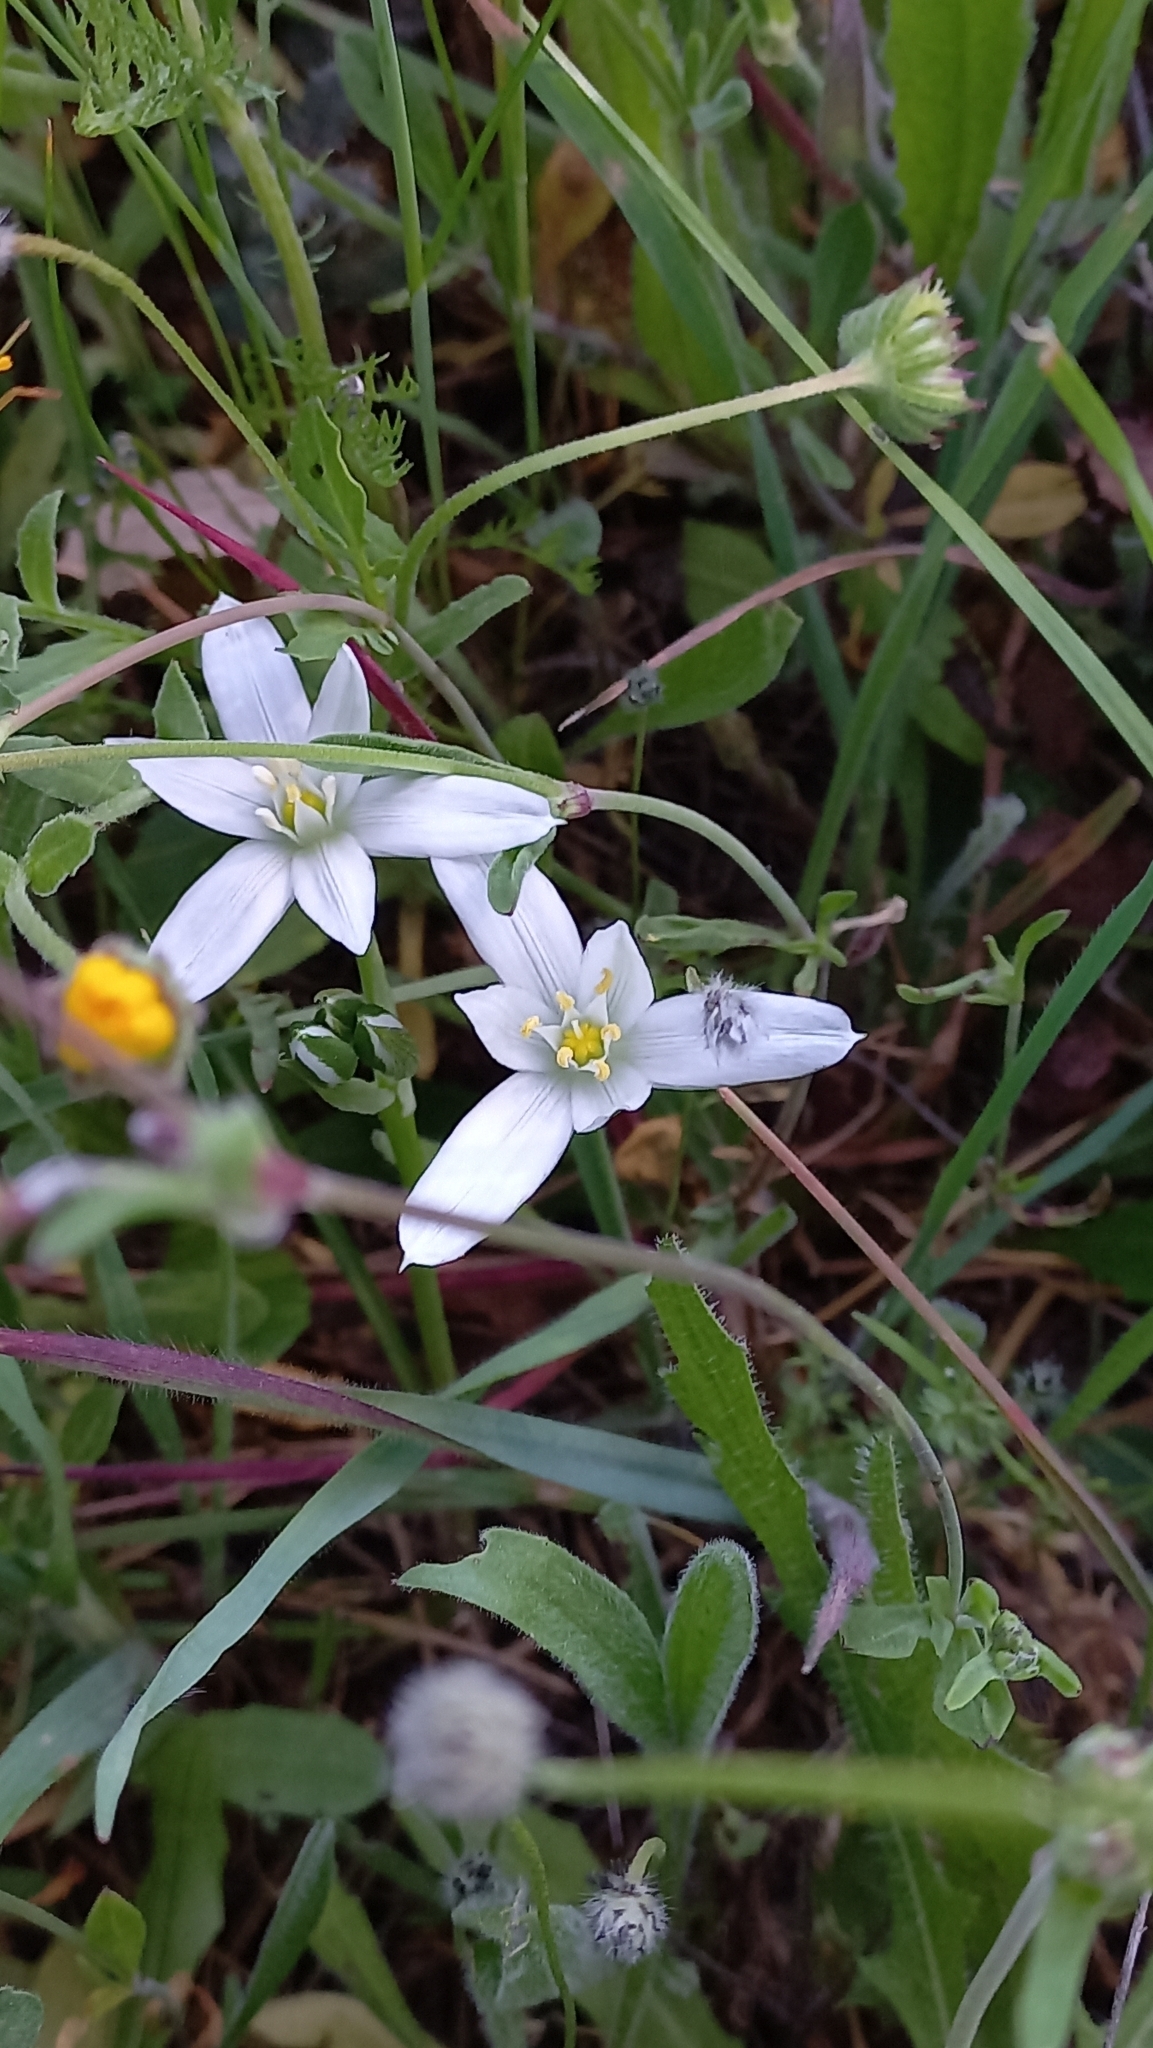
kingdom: Plantae
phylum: Tracheophyta
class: Liliopsida
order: Asparagales
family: Asparagaceae
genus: Ornithogalum
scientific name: Ornithogalum baeticum
